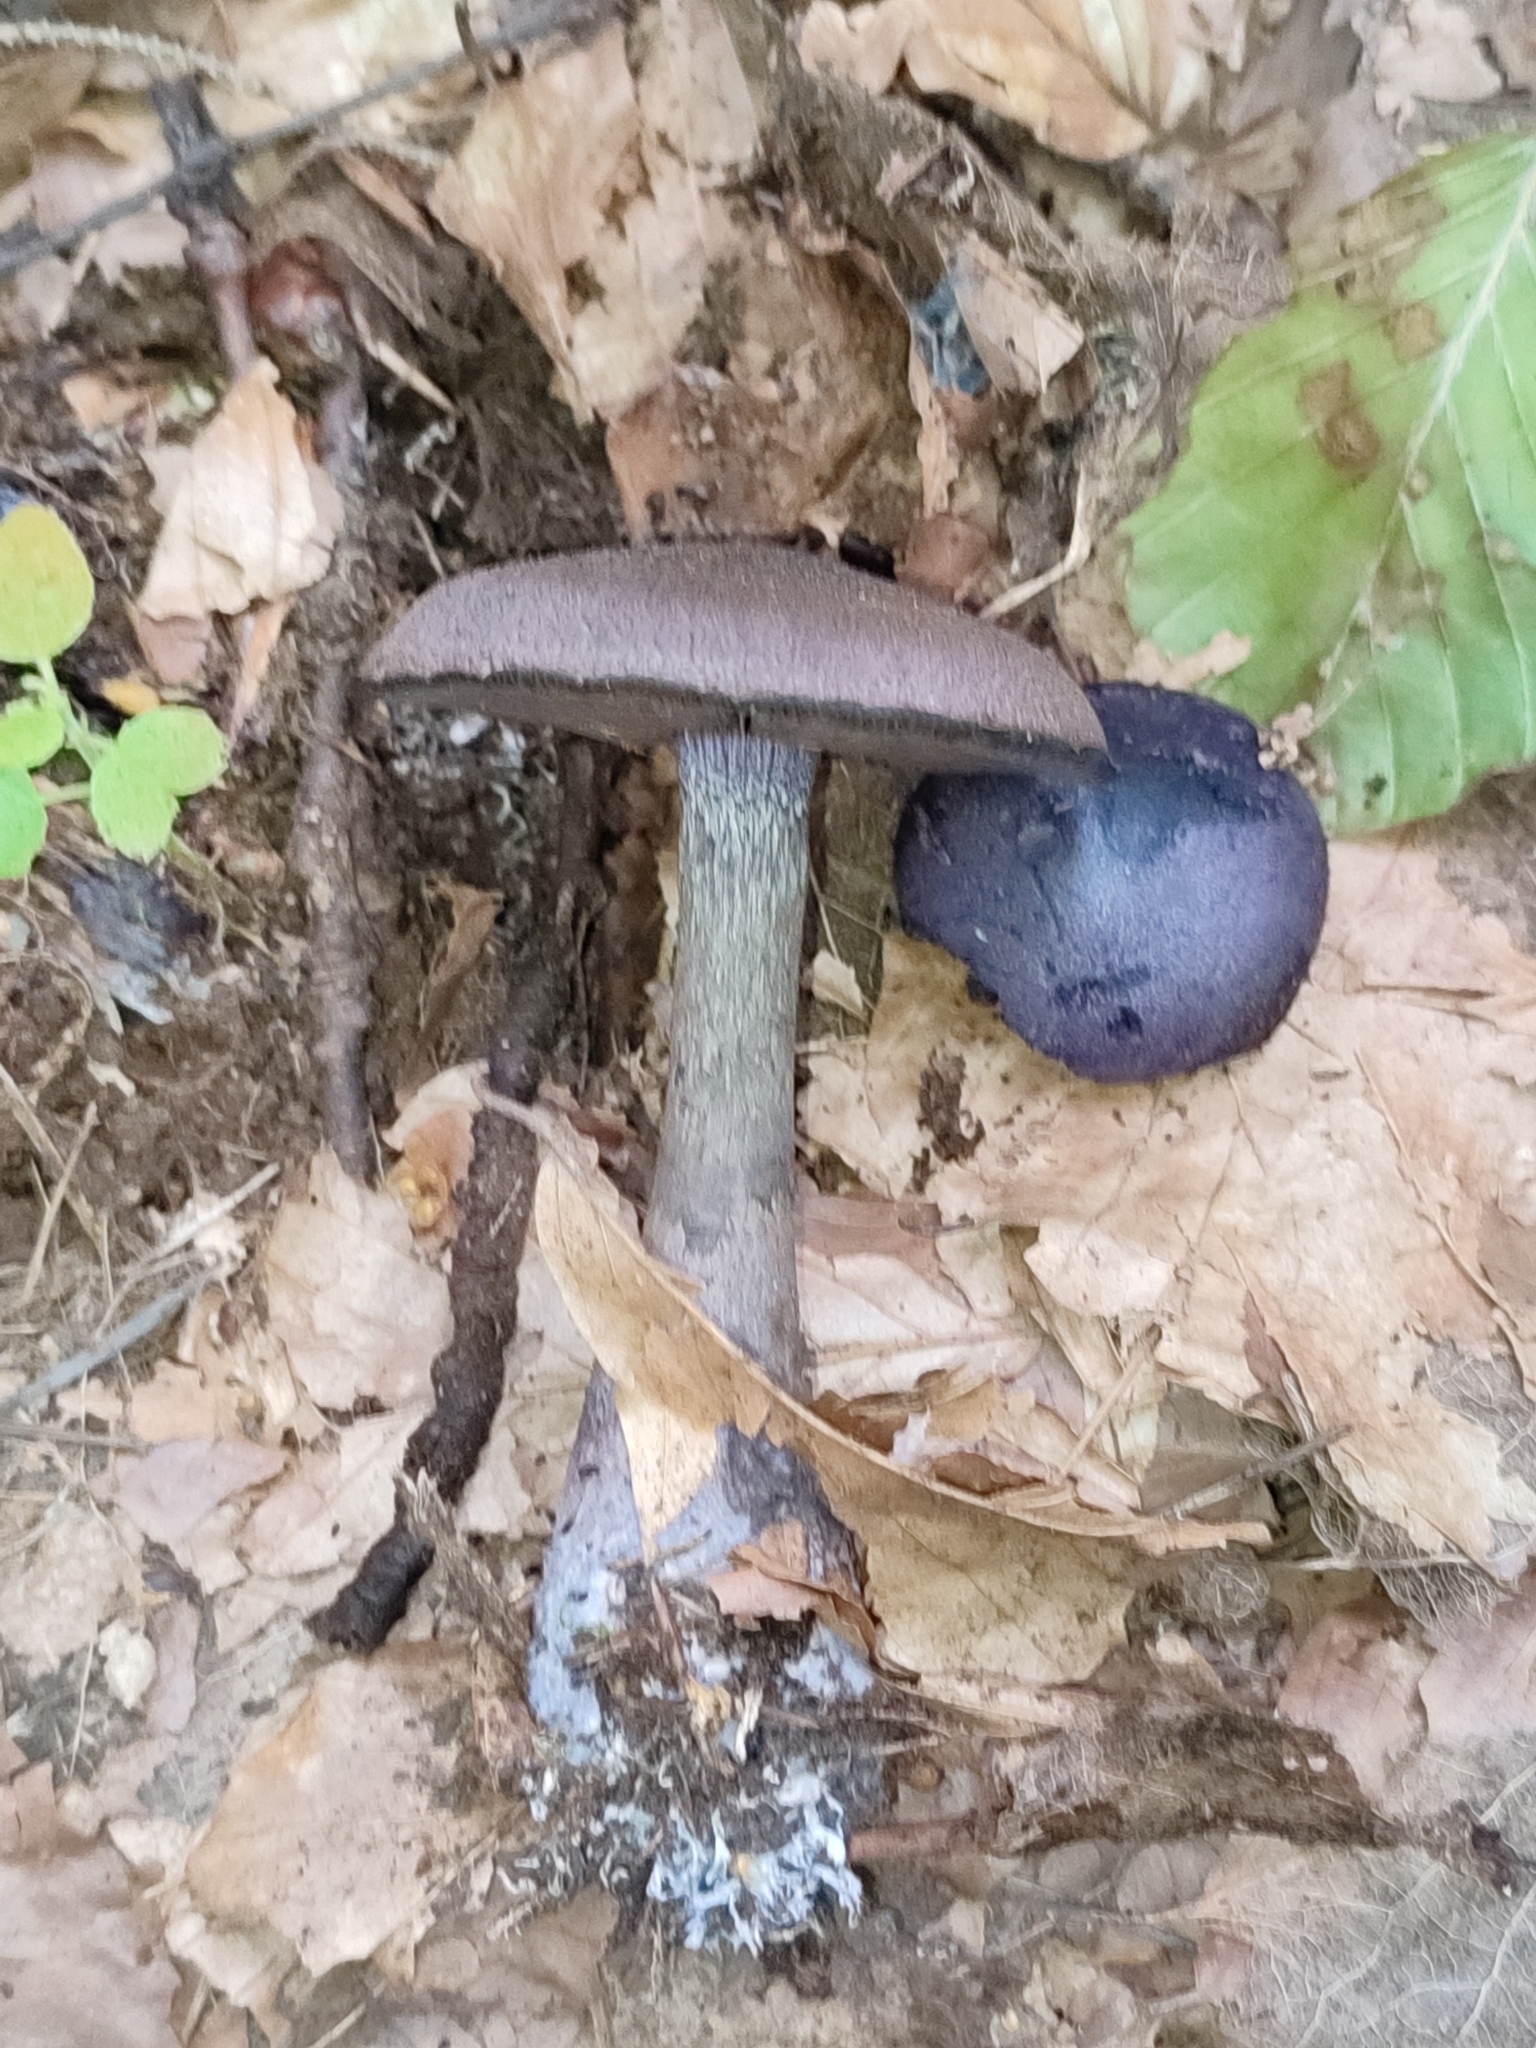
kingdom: Fungi
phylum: Basidiomycota
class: Agaricomycetes
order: Agaricales
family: Cortinariaceae
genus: Cortinarius
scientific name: Cortinarius violaceus
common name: Violet webcap
